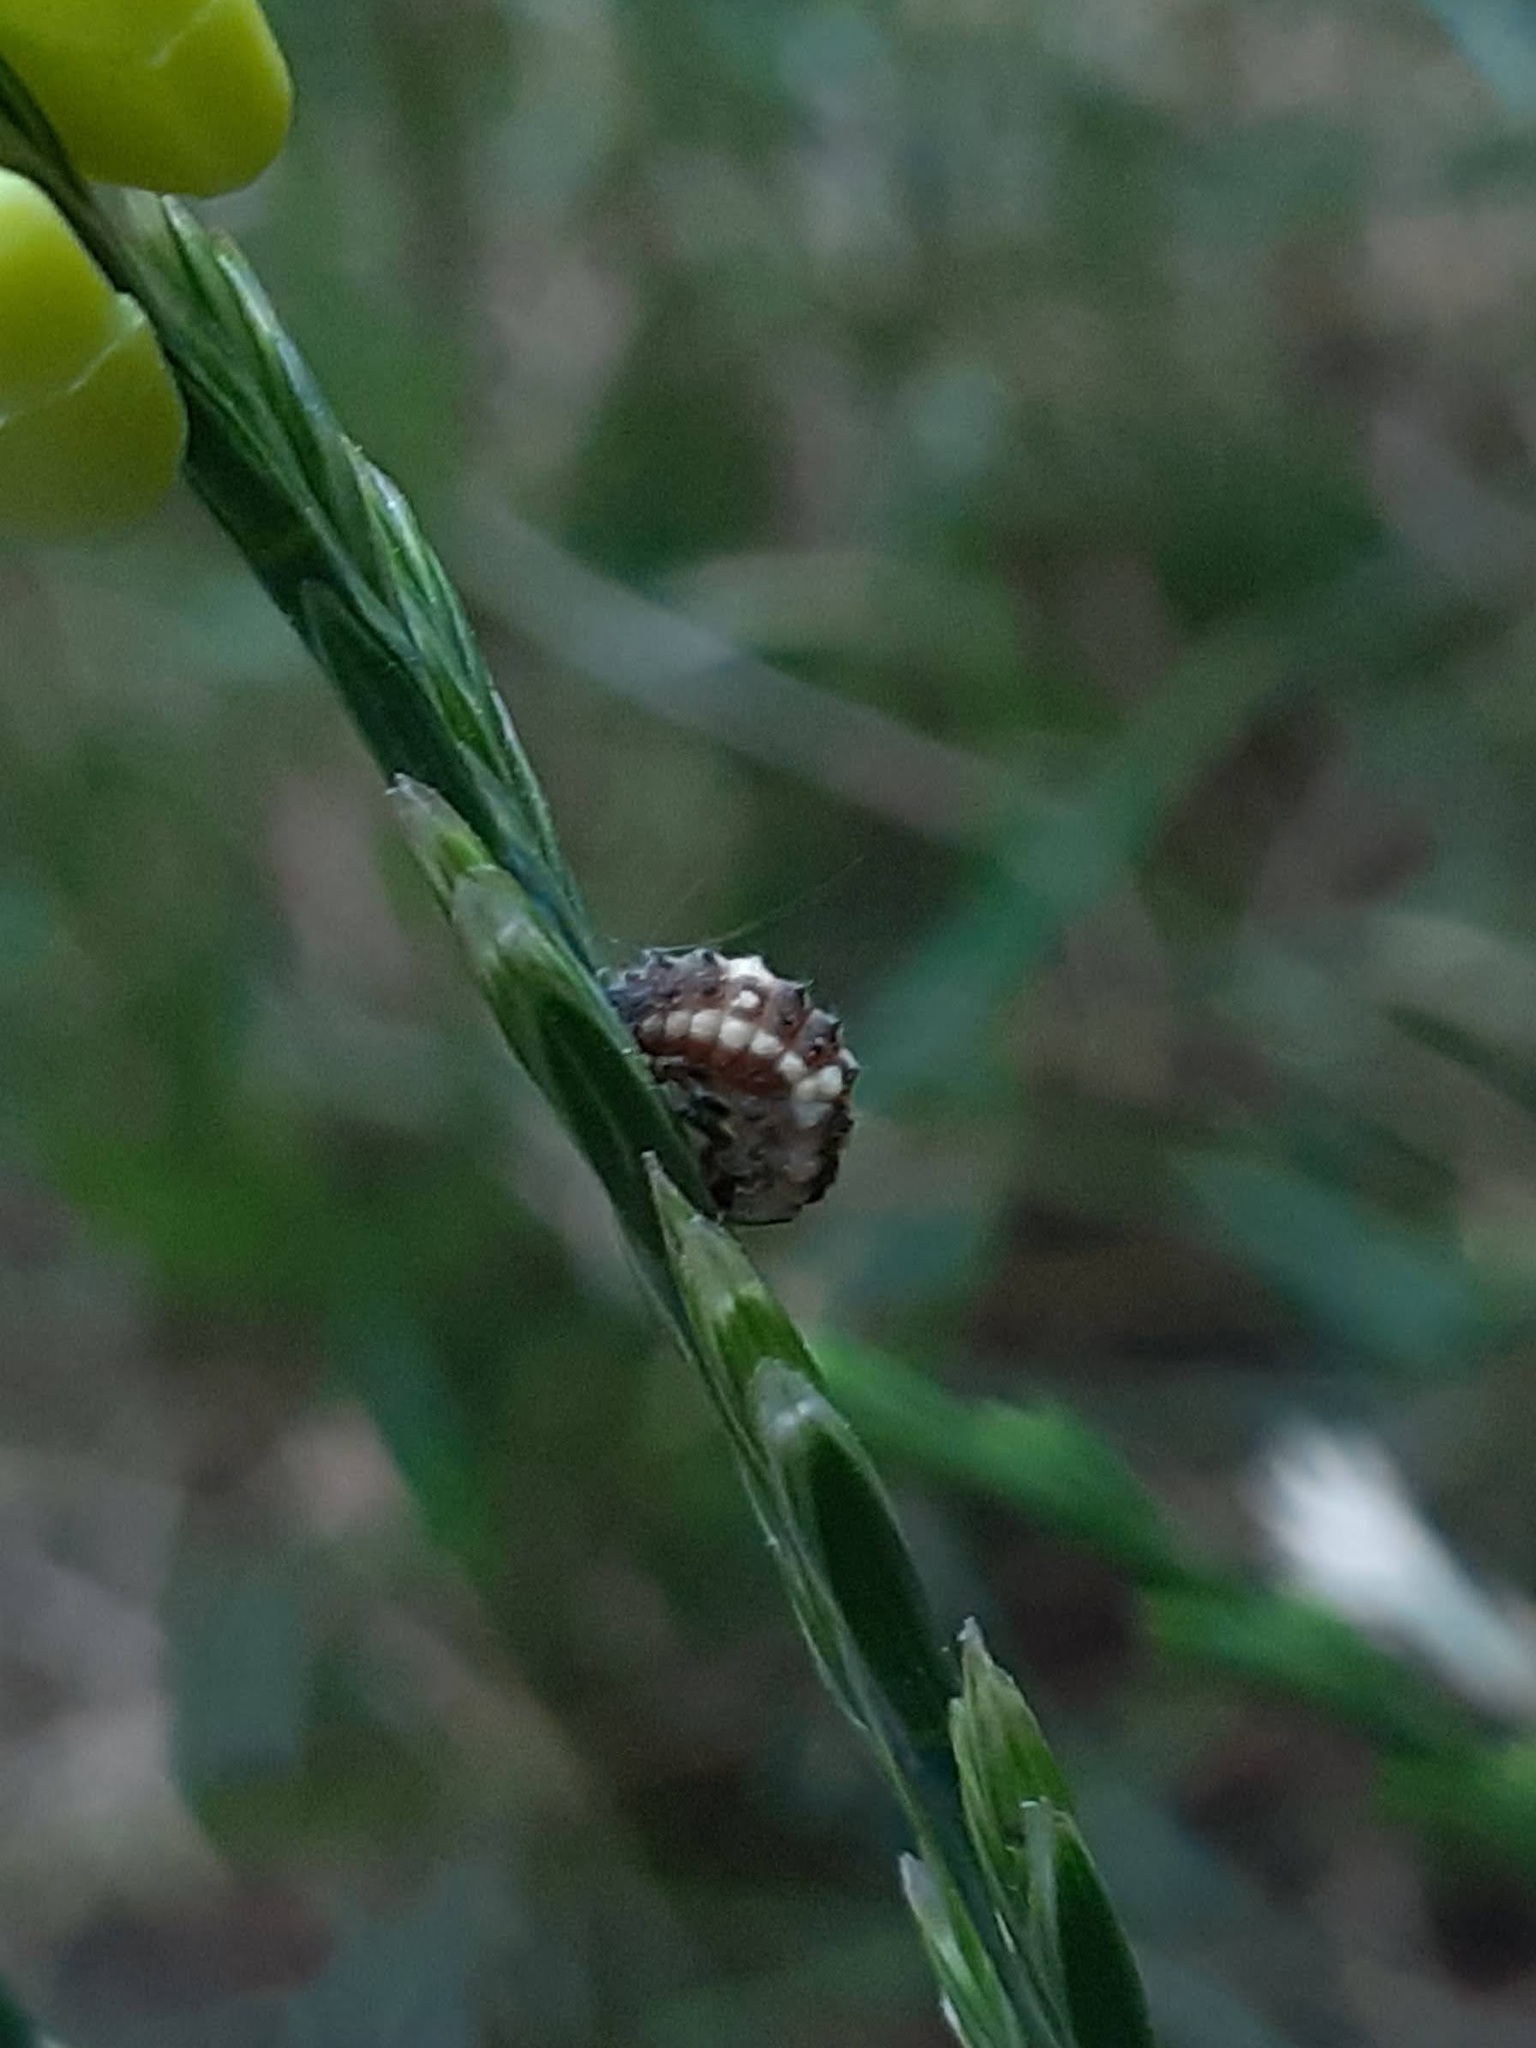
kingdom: Animalia
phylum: Arthropoda
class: Insecta
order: Coleoptera
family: Coccinellidae
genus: Propylaea
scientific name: Propylaea quatuordecimpunctata
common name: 14-spotted ladybird beetle
